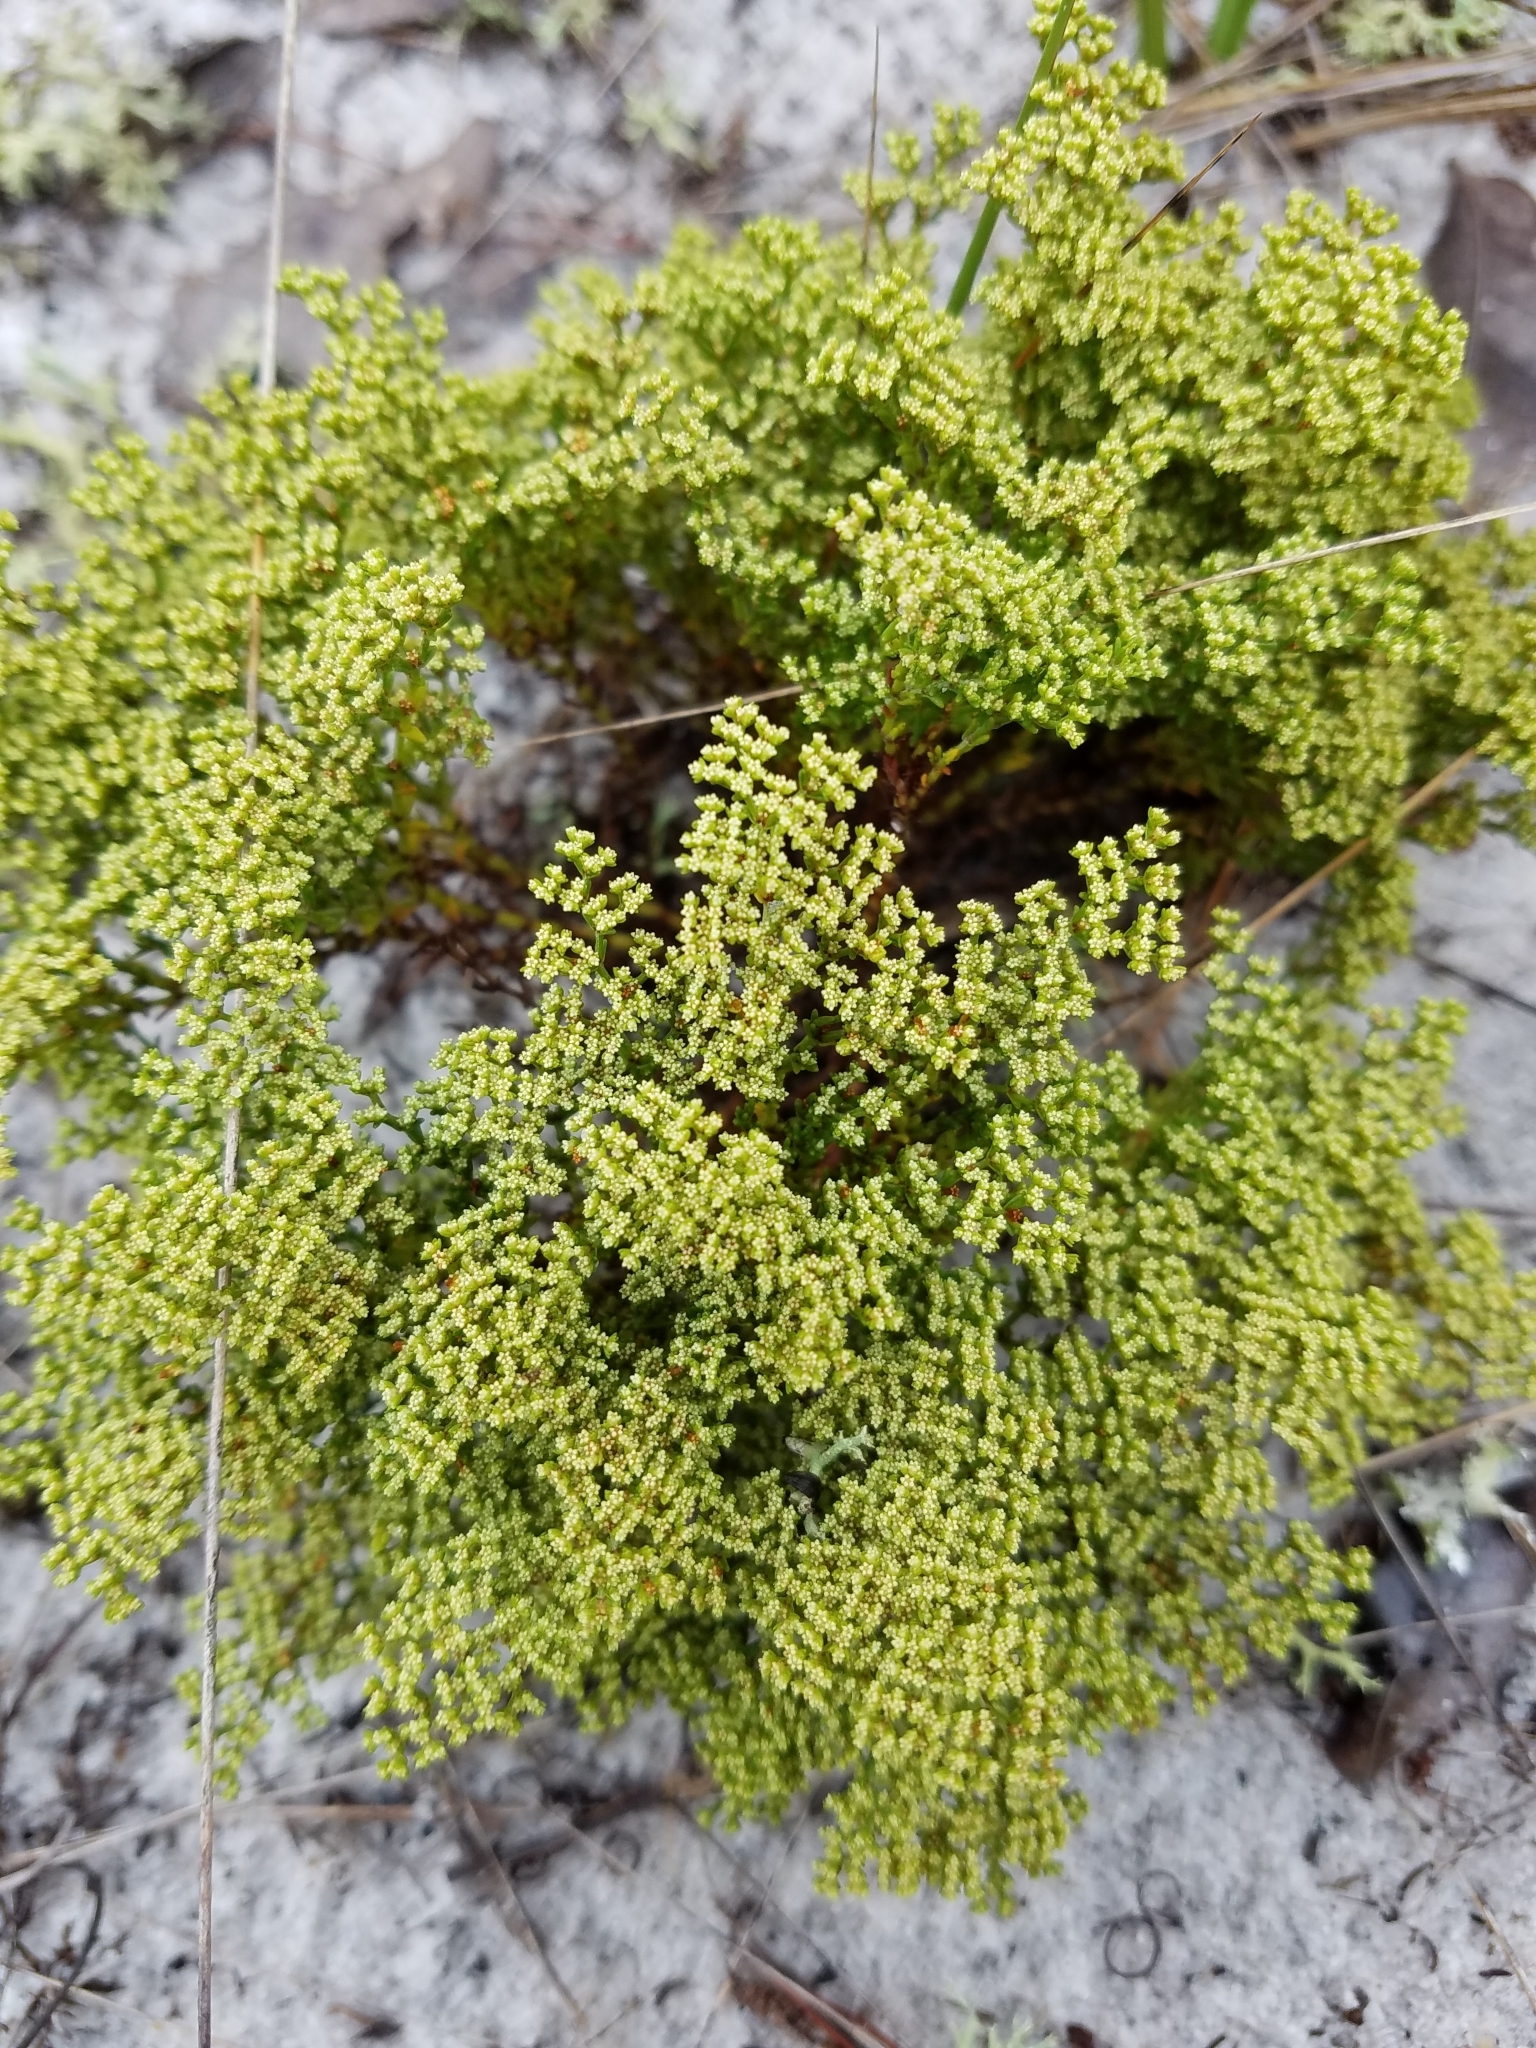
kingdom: Plantae
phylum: Tracheophyta
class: Magnoliopsida
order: Caryophyllales
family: Caryophyllaceae
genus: Paronychia
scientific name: Paronychia chartacea
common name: Paper nailwort
